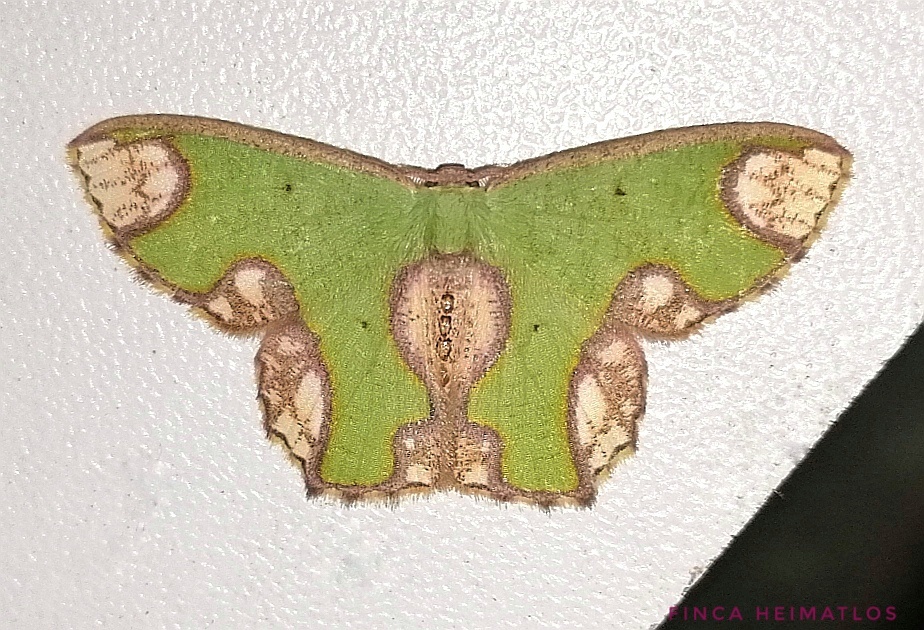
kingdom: Animalia
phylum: Arthropoda
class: Insecta
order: Lepidoptera
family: Geometridae
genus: Oospila
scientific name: Oospila delphinata
